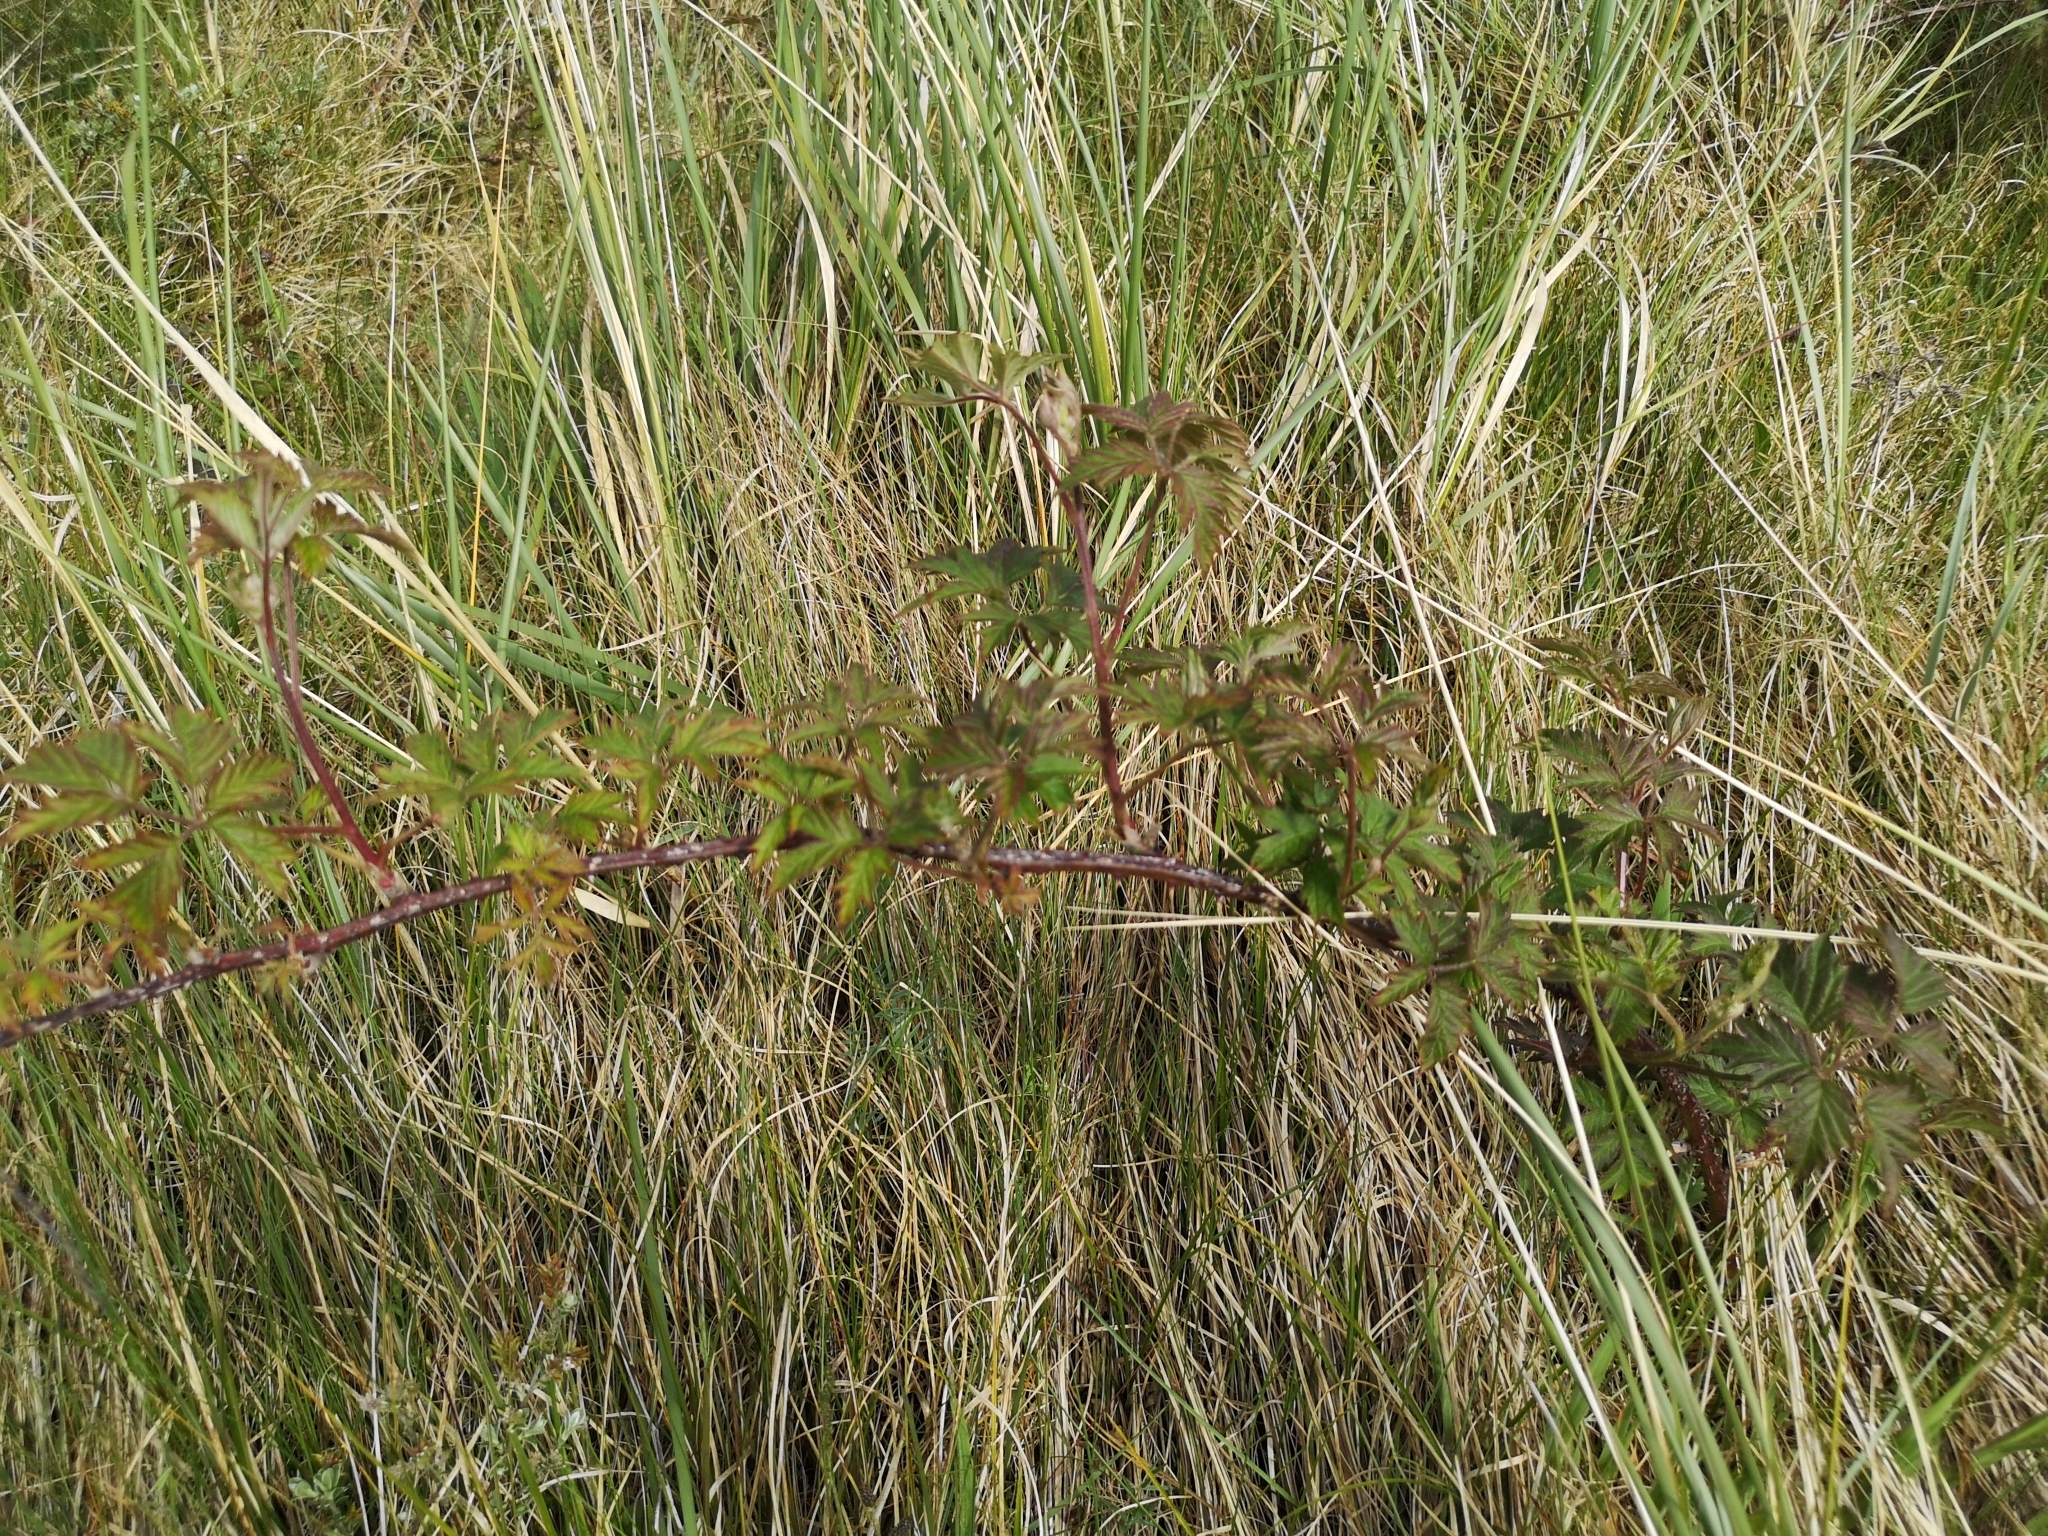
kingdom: Plantae
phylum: Tracheophyta
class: Magnoliopsida
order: Rosales
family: Rosaceae
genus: Rubus
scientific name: Rubus laciniatus
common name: Evergreen blackberry
